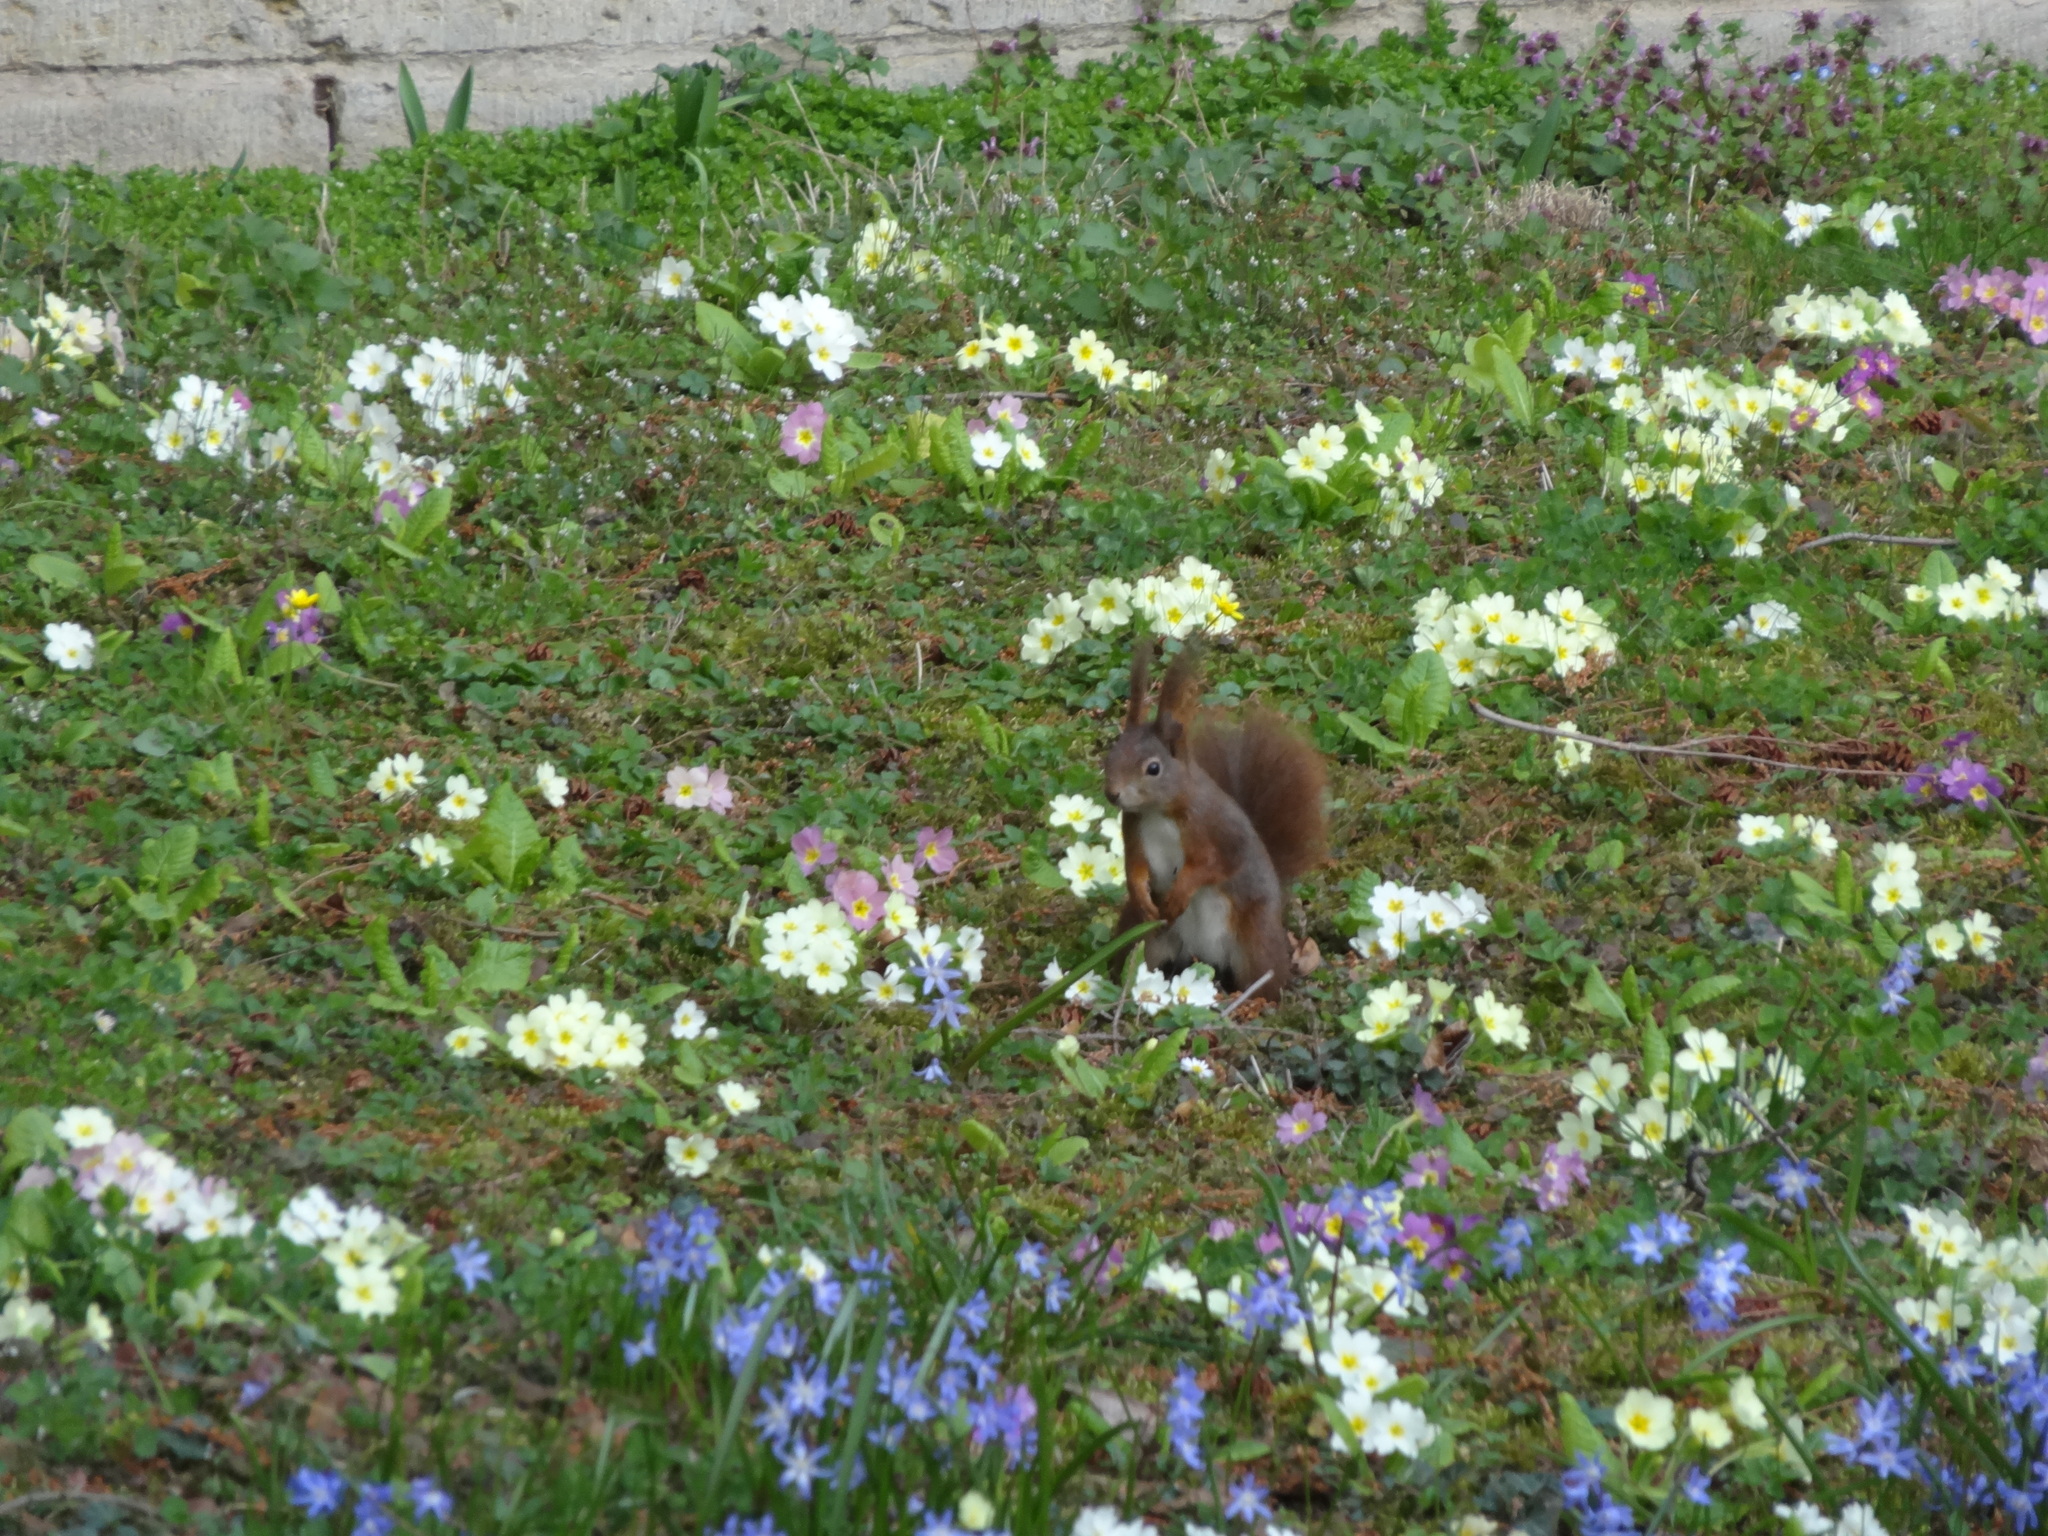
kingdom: Animalia
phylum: Chordata
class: Mammalia
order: Rodentia
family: Sciuridae
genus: Sciurus
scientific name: Sciurus vulgaris
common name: Eurasian red squirrel
